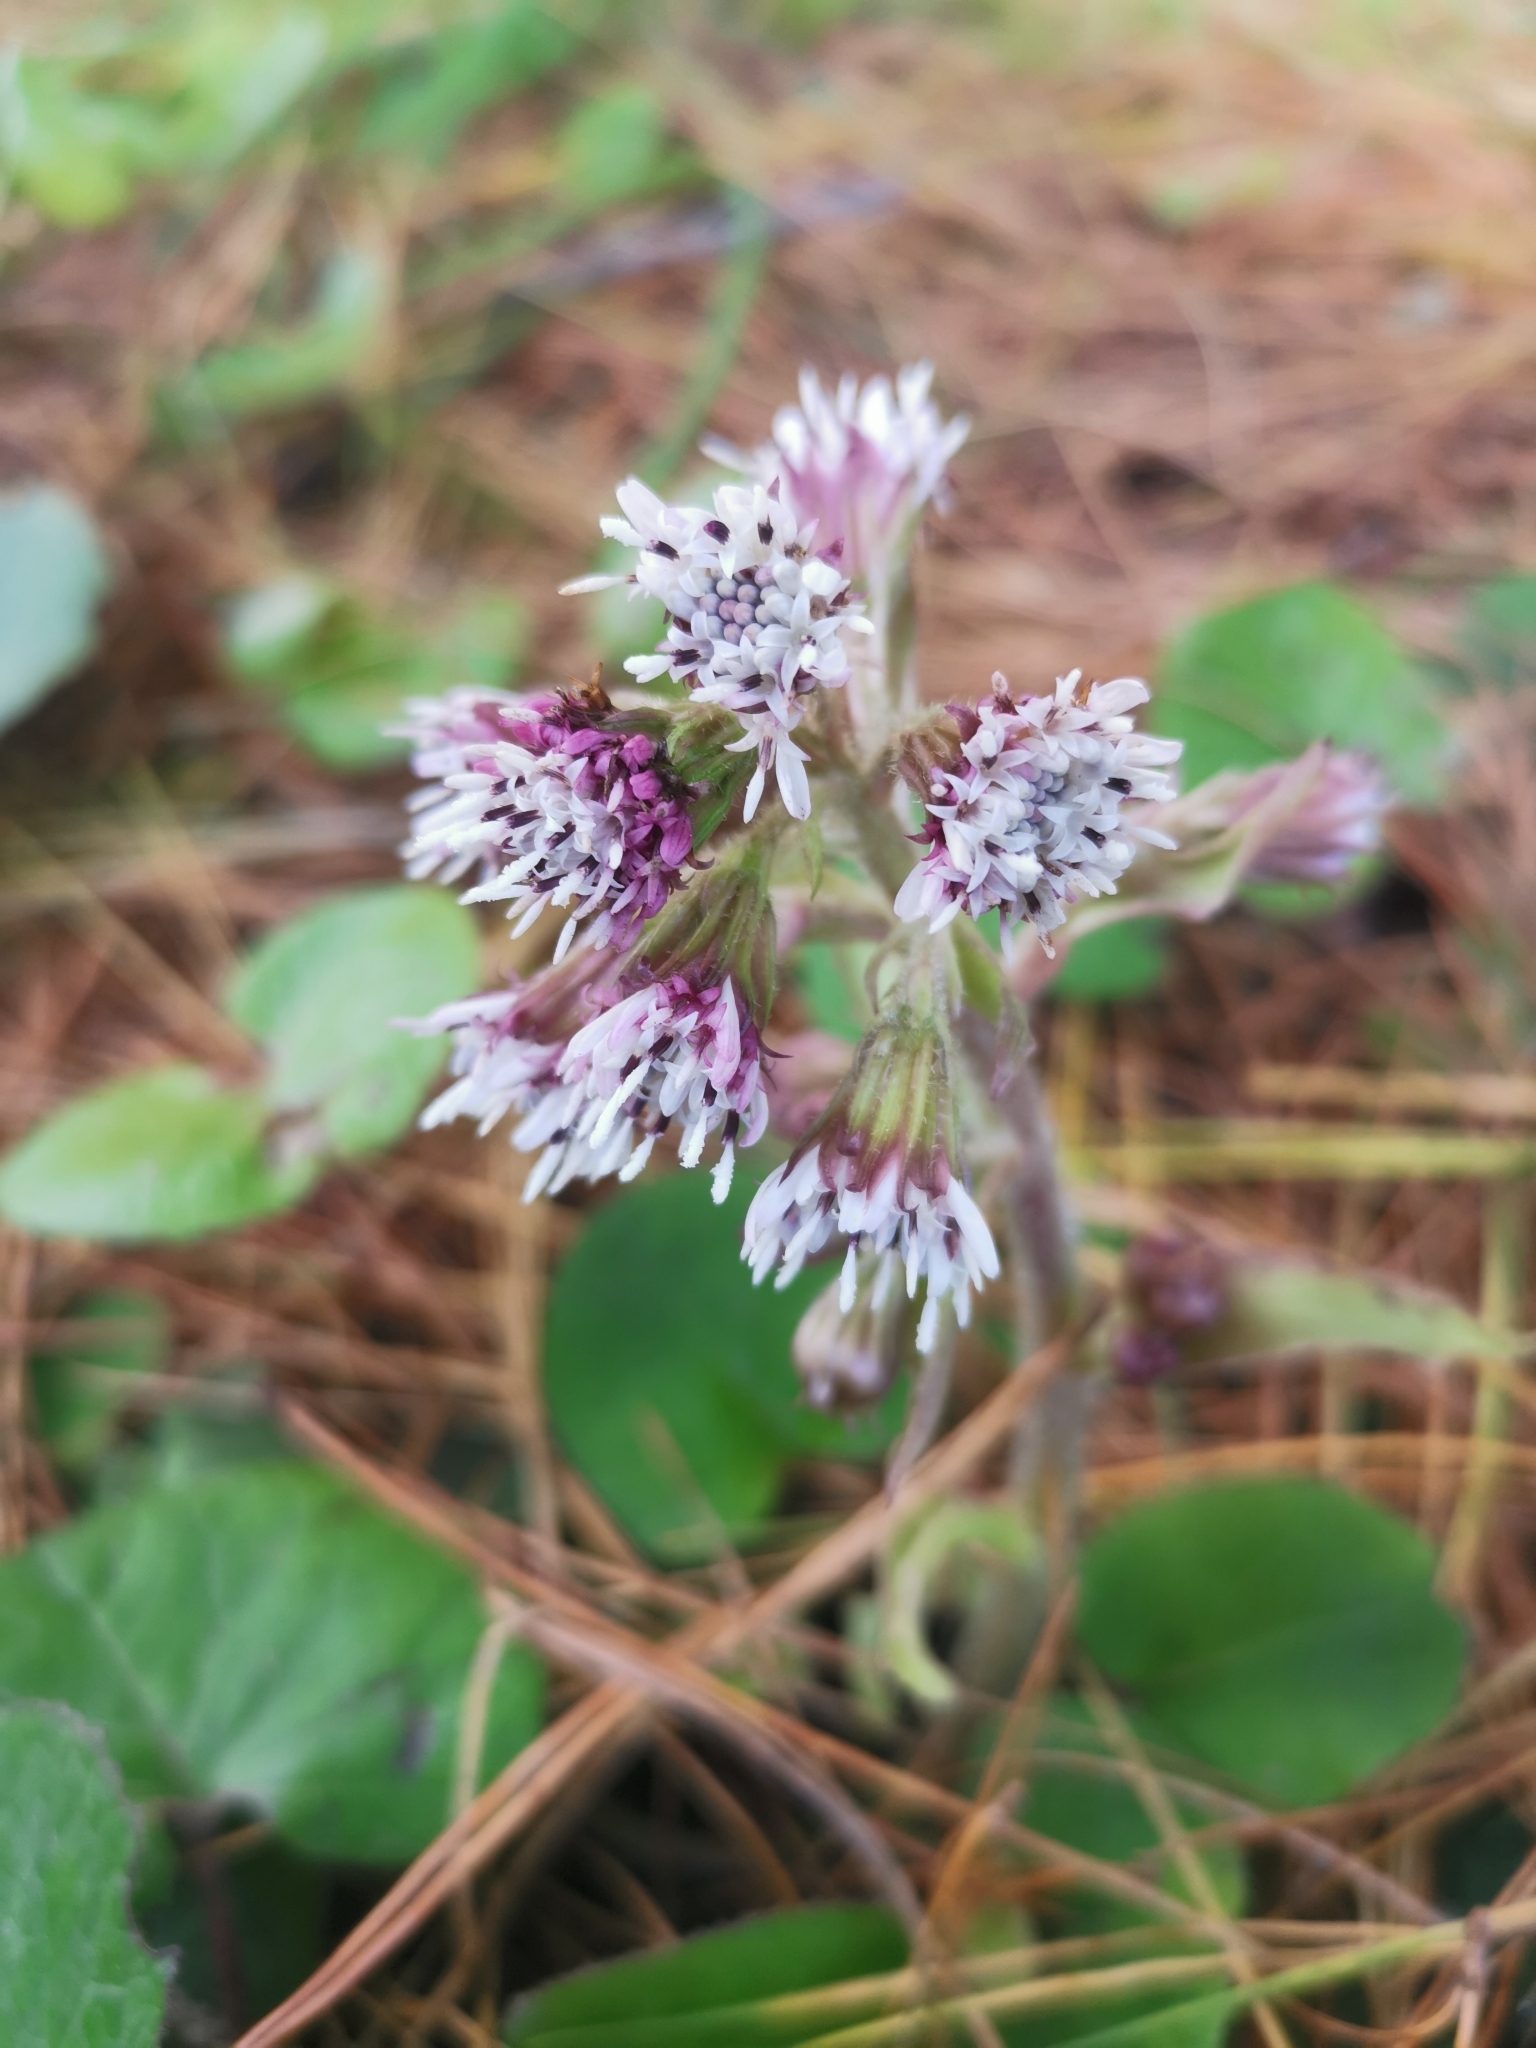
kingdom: Plantae
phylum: Tracheophyta
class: Magnoliopsida
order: Asterales
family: Asteraceae
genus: Petasites
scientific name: Petasites pyrenaicus
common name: Winter heliotrope
